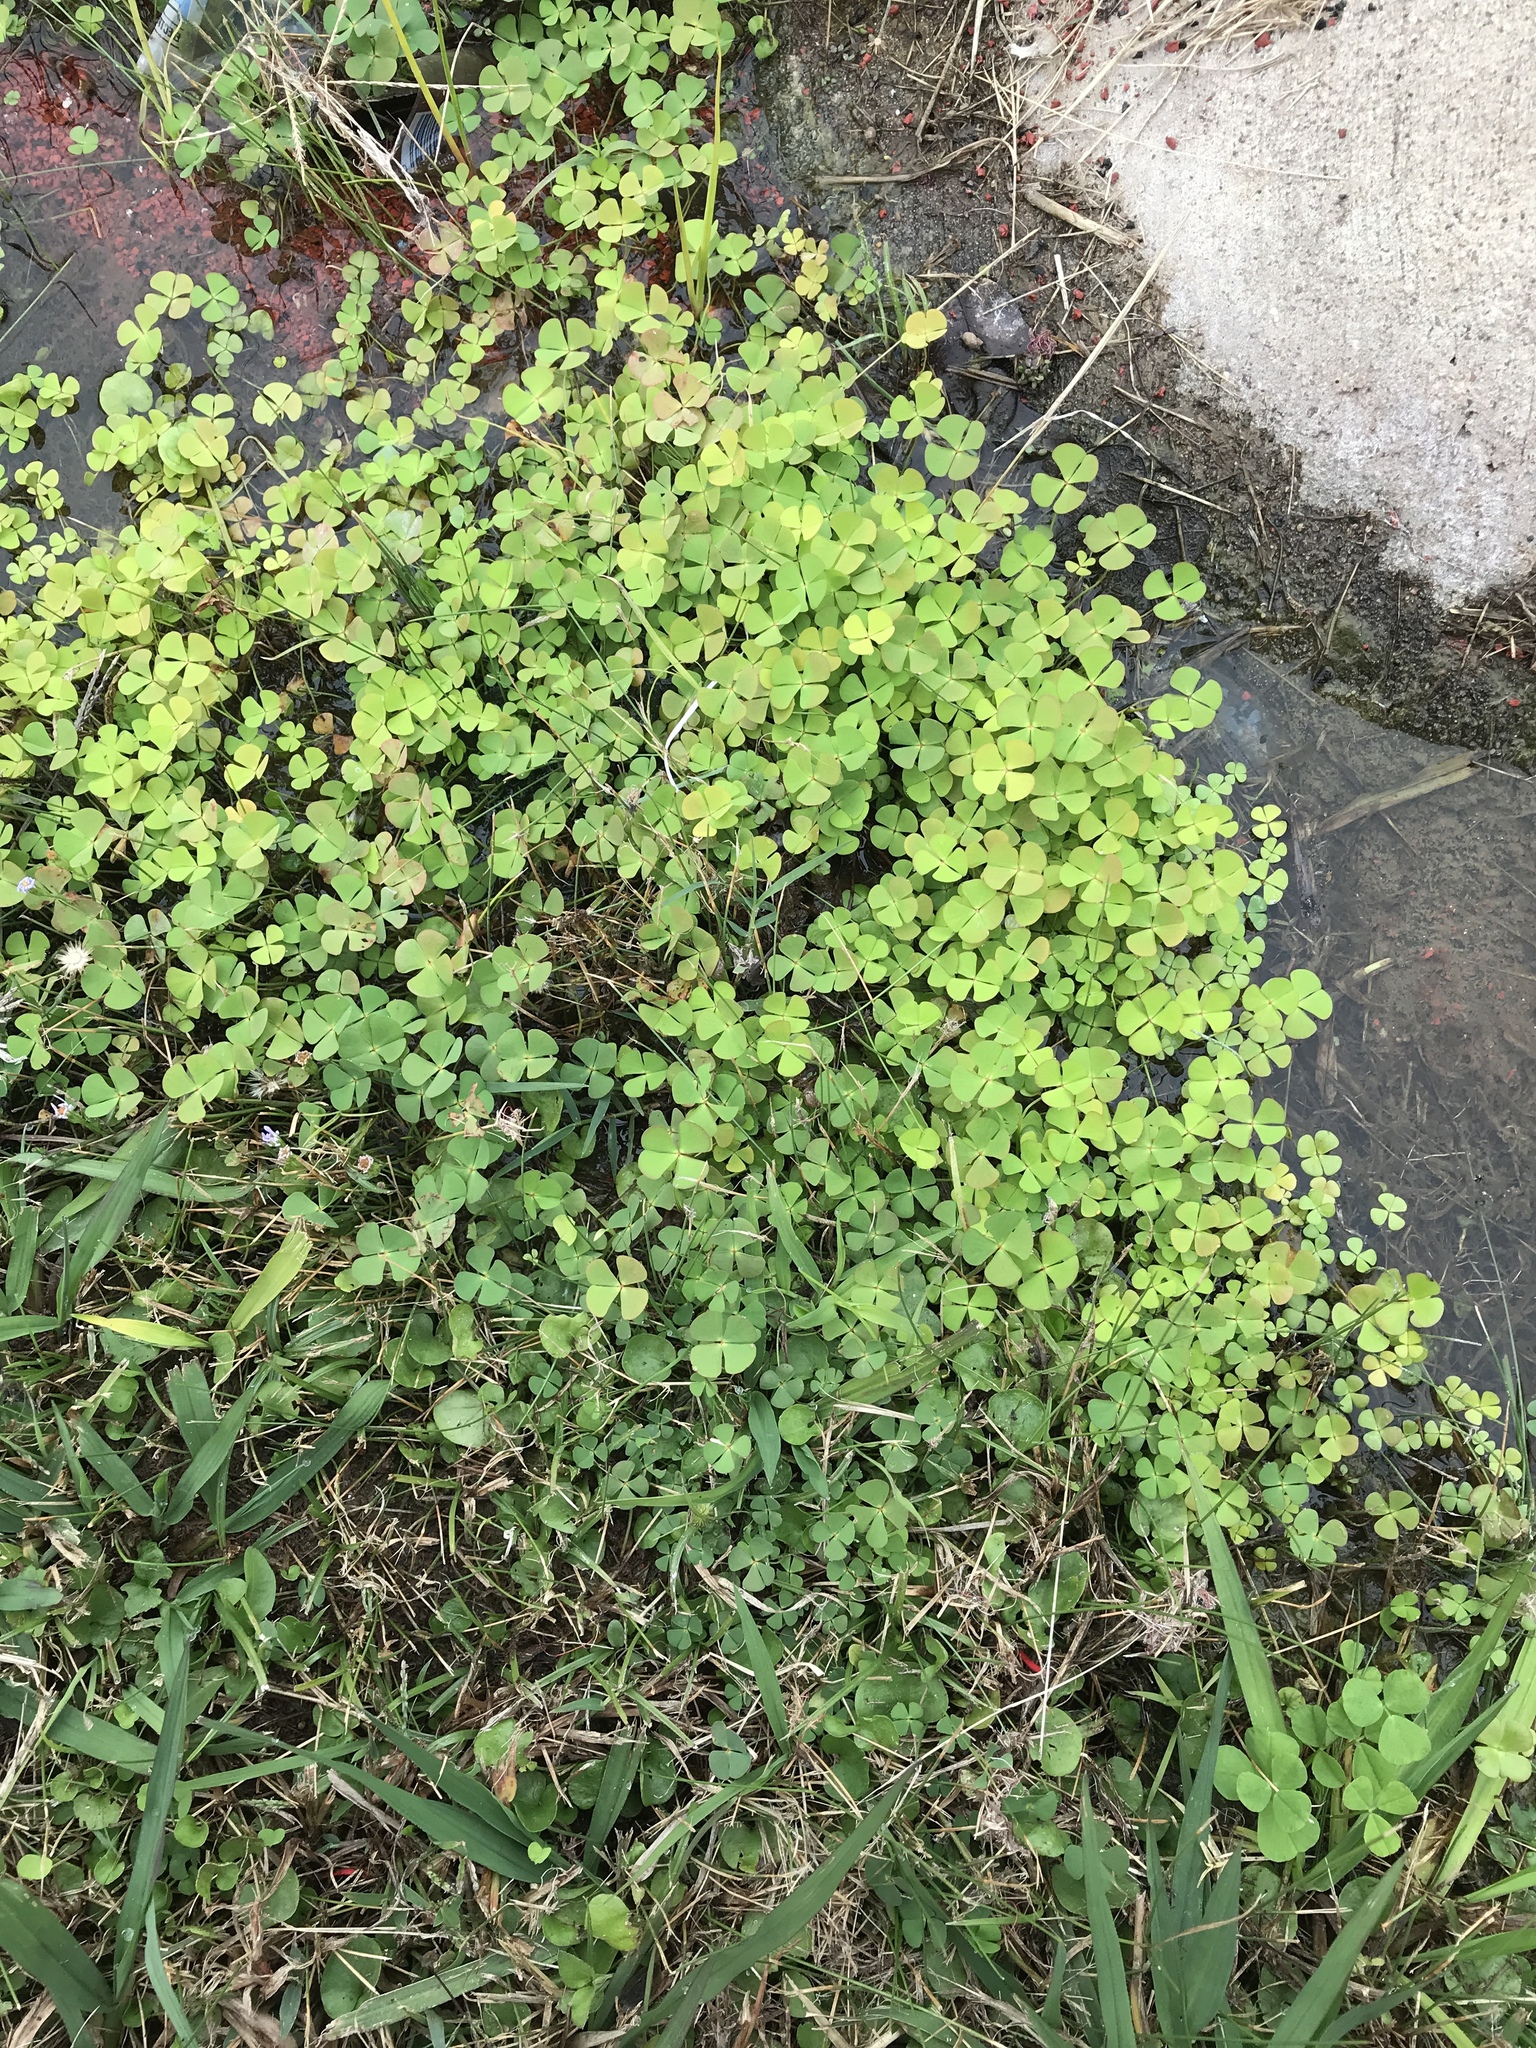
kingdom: Plantae
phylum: Tracheophyta
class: Polypodiopsida
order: Salviniales
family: Marsileaceae
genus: Marsilea
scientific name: Marsilea vestita
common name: Hooked-pepperwort
